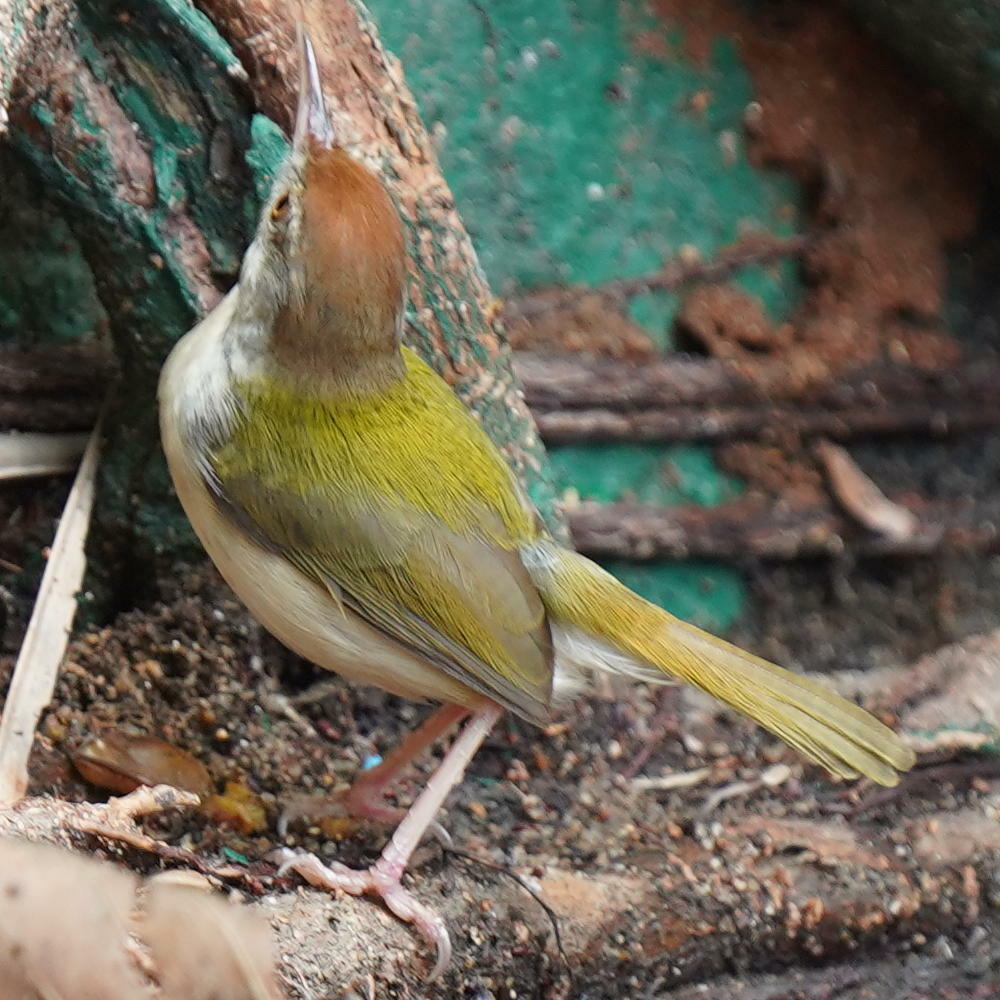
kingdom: Animalia
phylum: Chordata
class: Aves
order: Passeriformes
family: Cisticolidae
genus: Orthotomus
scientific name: Orthotomus sutorius
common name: Common tailorbird
